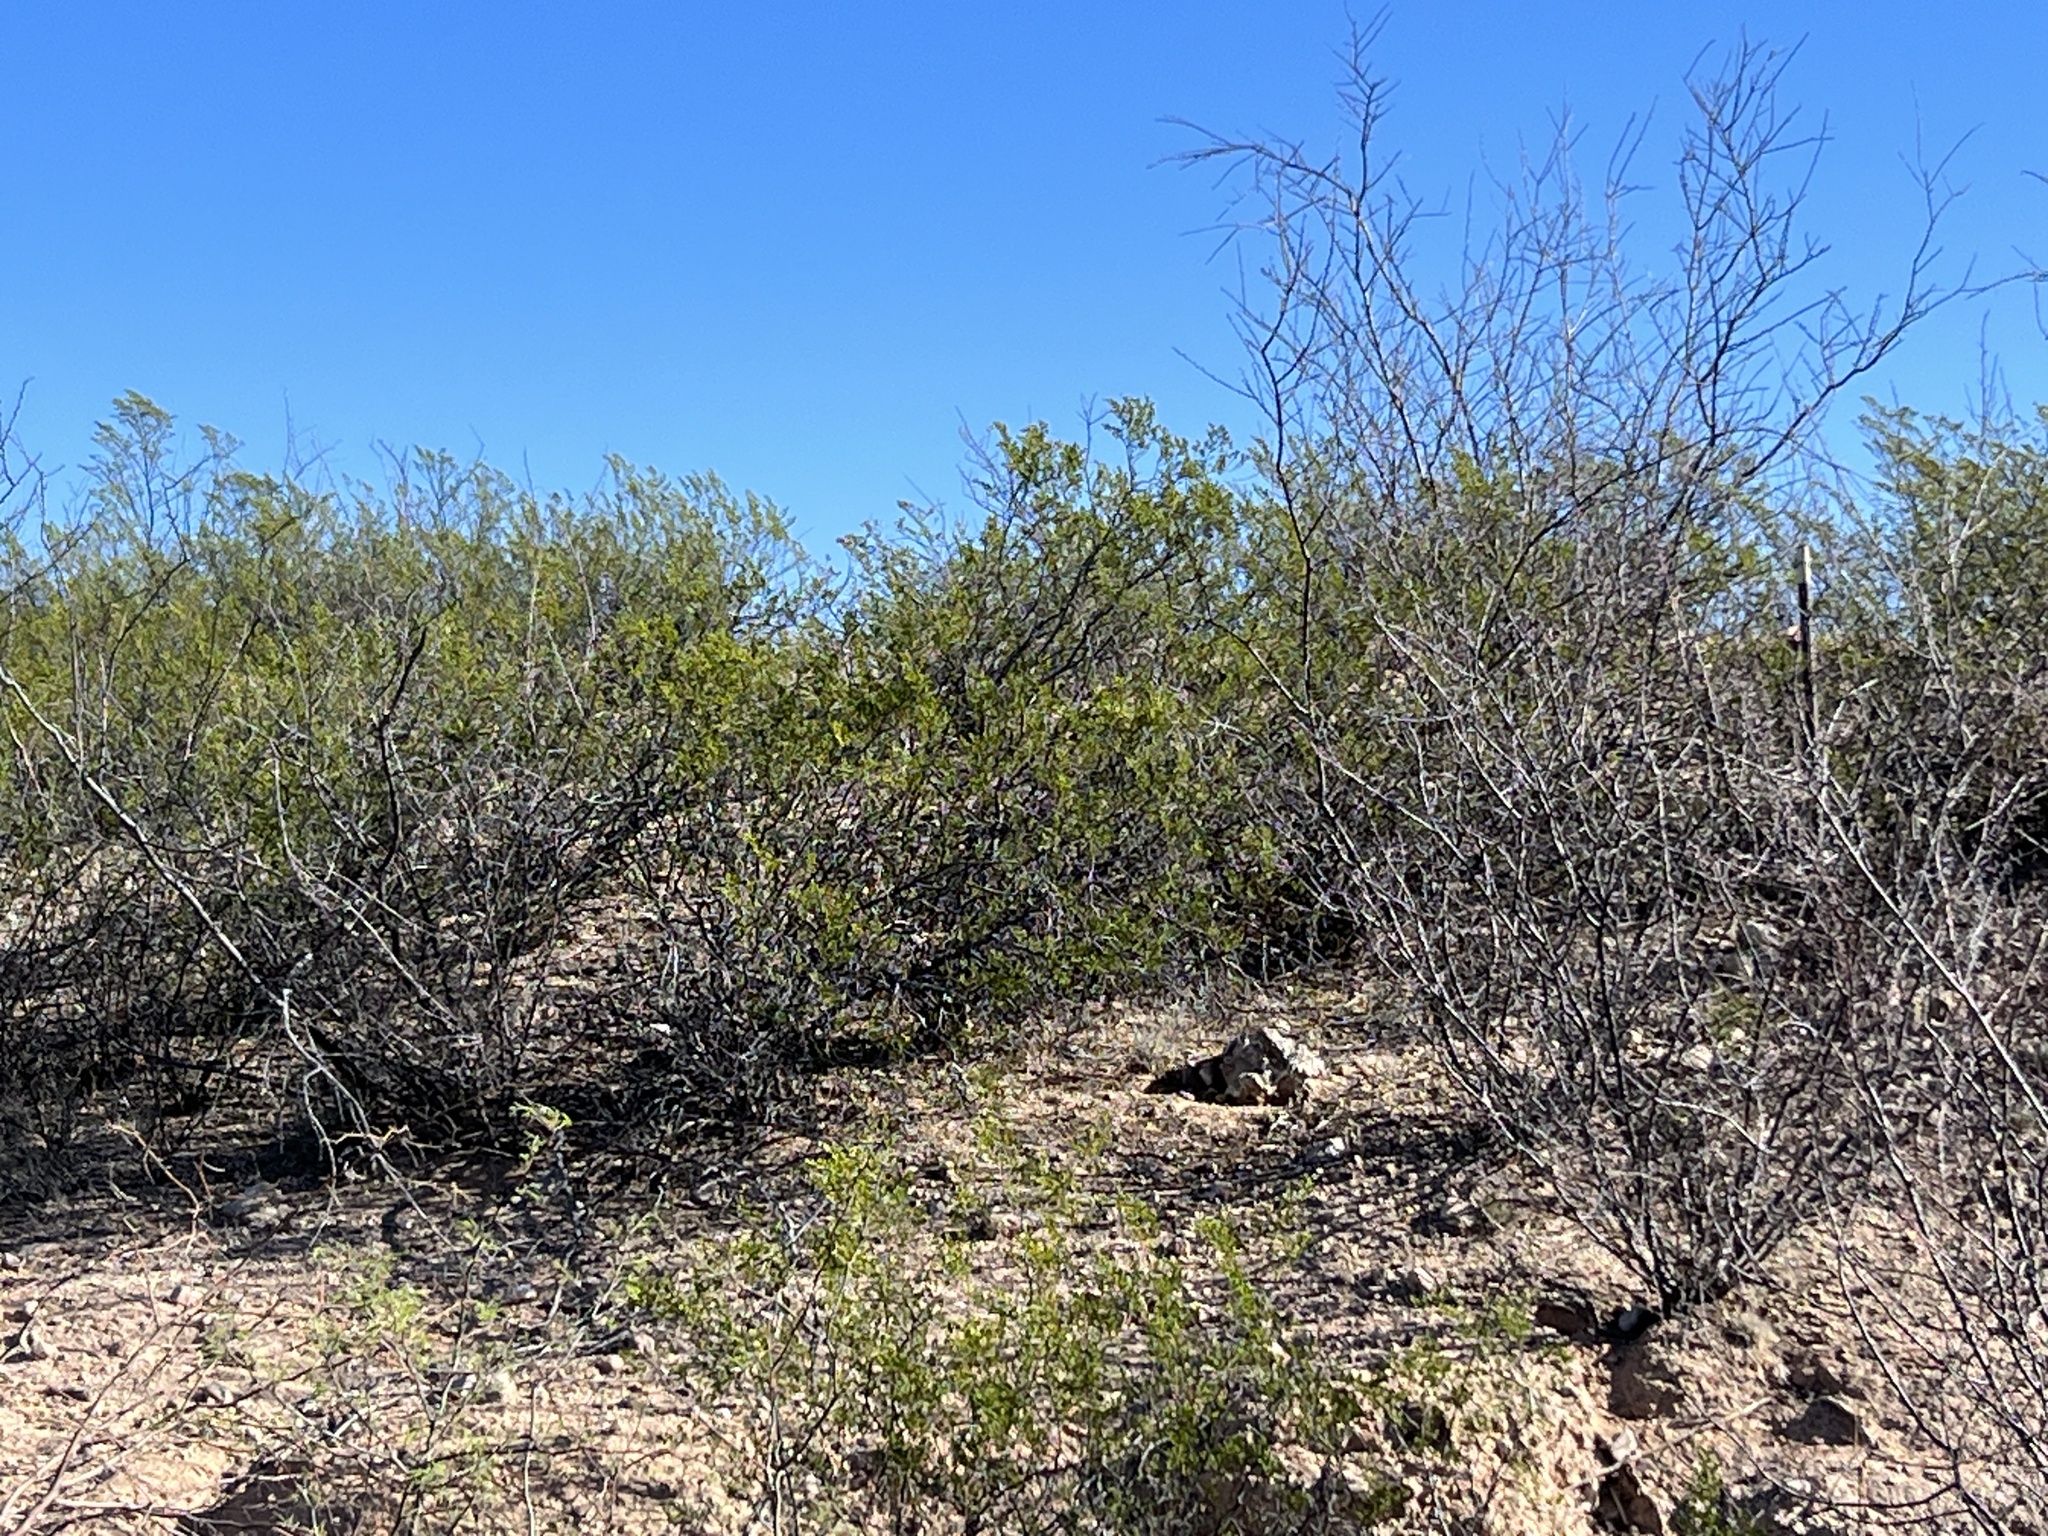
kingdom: Plantae
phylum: Tracheophyta
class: Magnoliopsida
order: Zygophyllales
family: Zygophyllaceae
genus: Larrea
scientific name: Larrea tridentata
